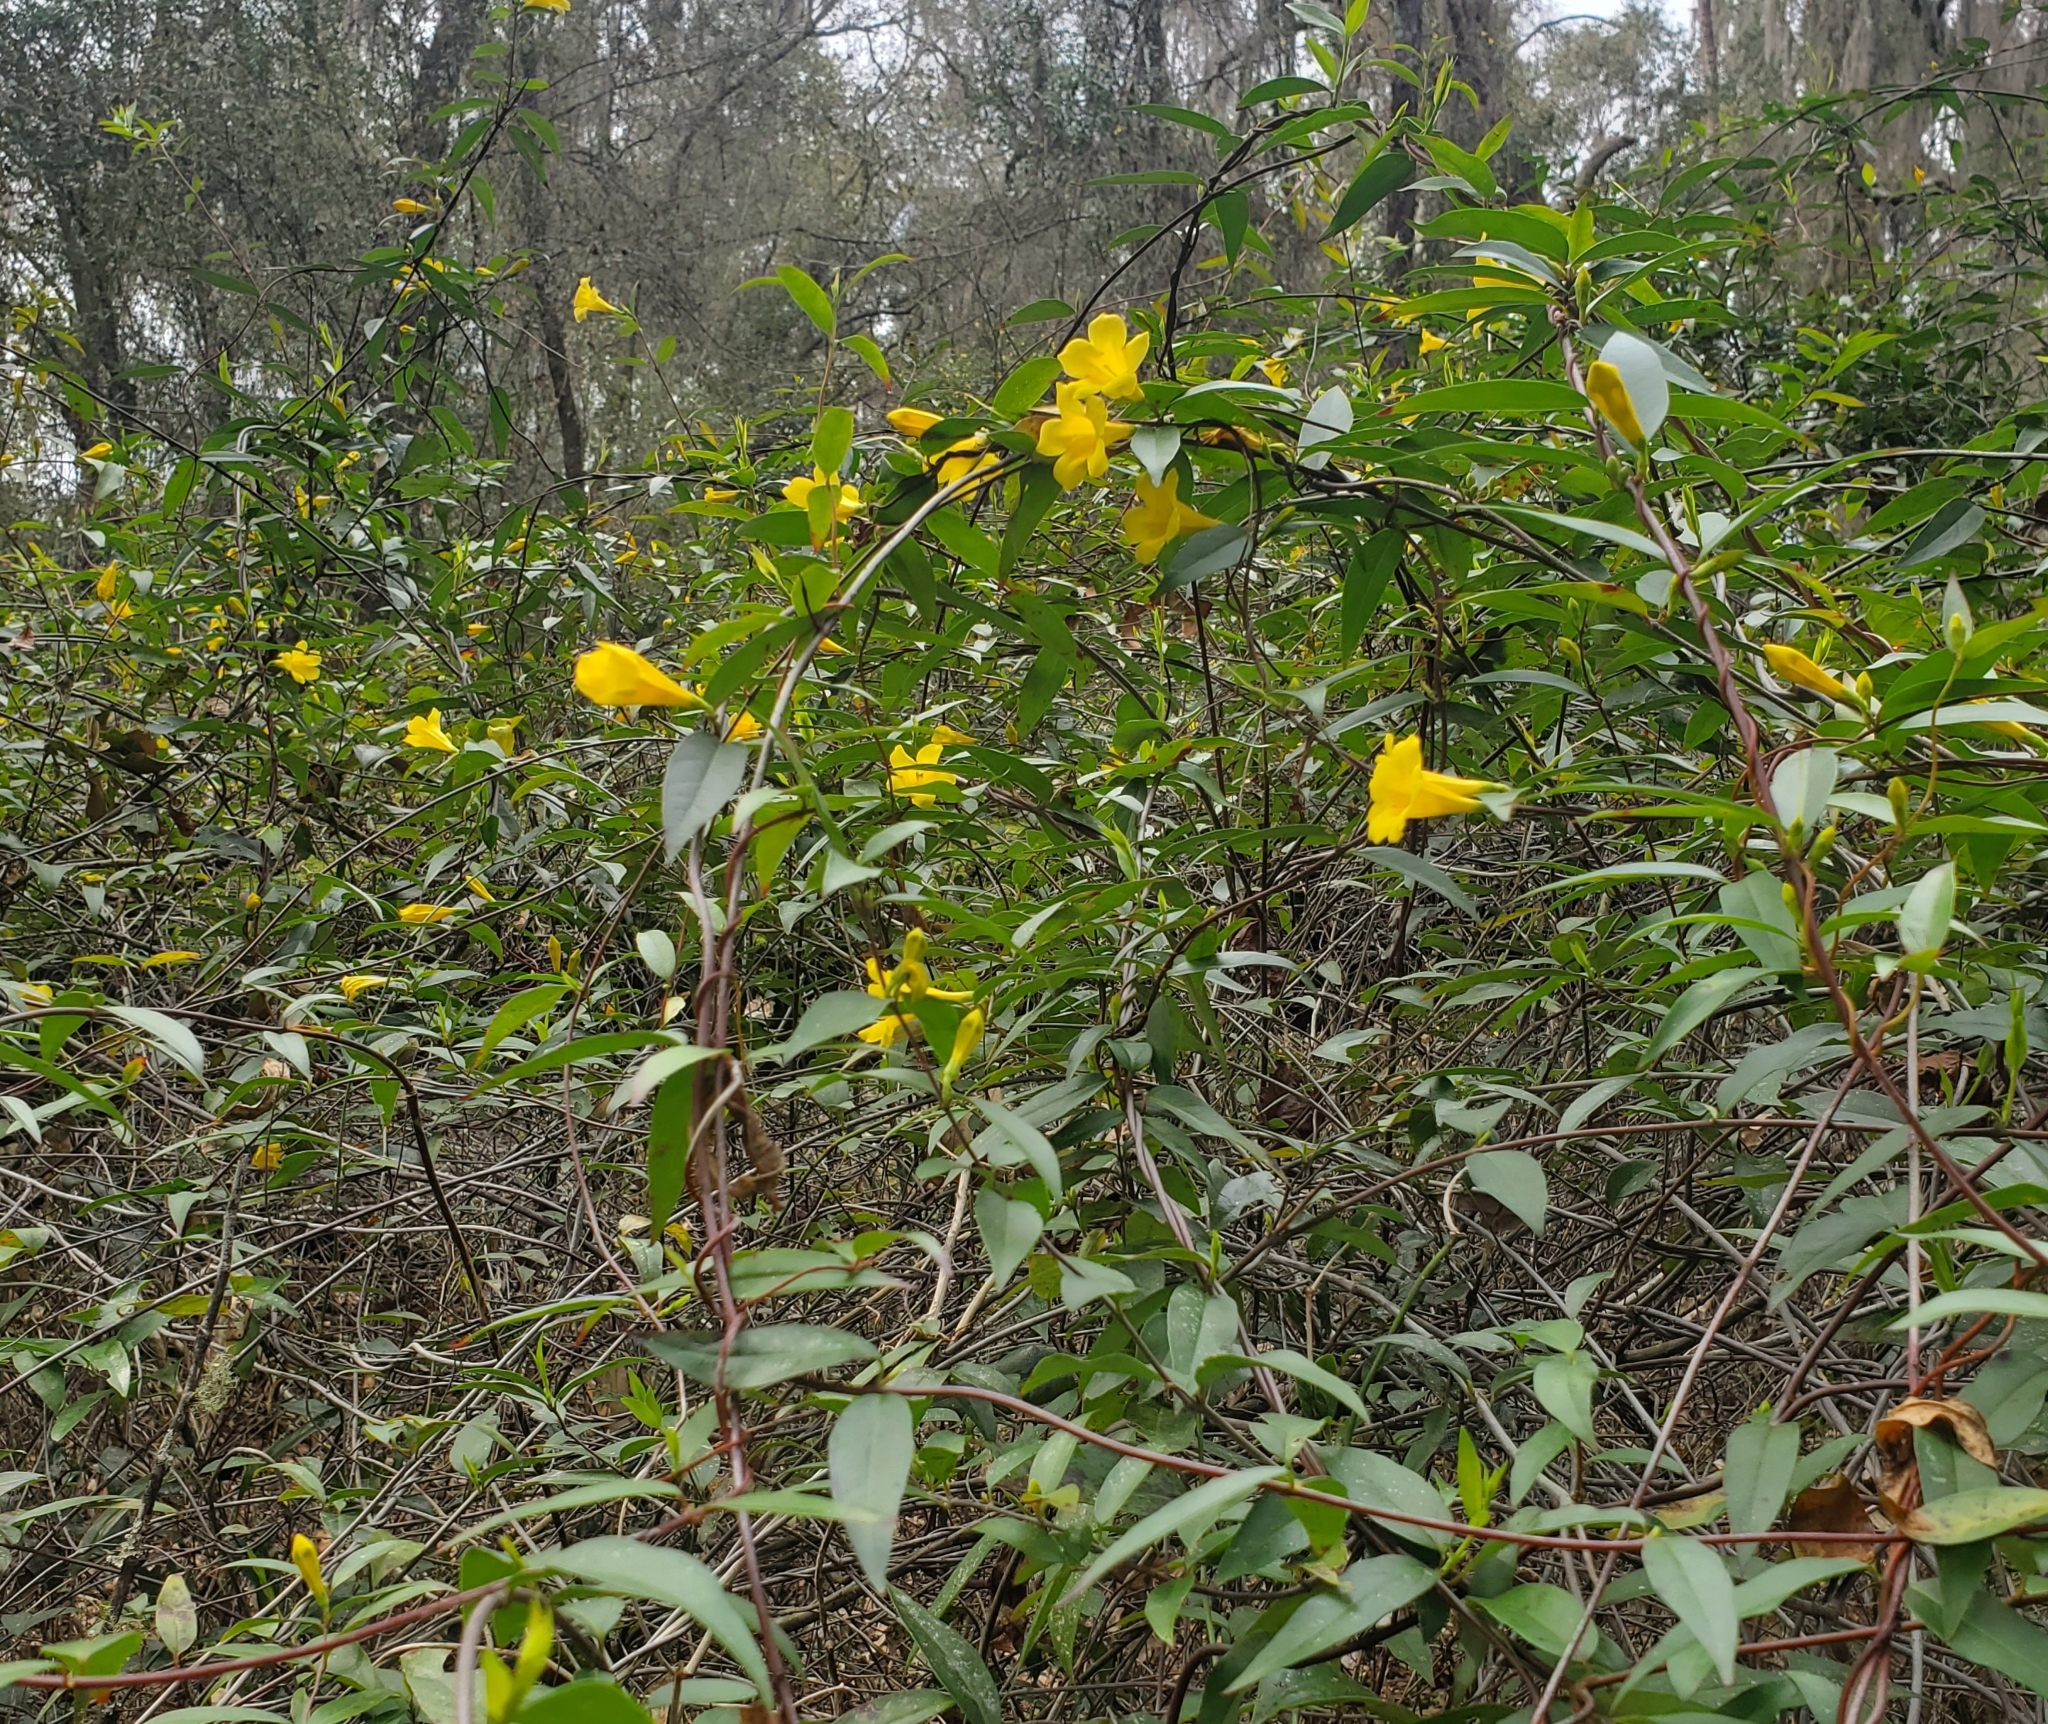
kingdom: Plantae
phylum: Tracheophyta
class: Magnoliopsida
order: Gentianales
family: Gelsemiaceae
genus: Gelsemium
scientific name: Gelsemium sempervirens
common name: Carolina-jasmine
